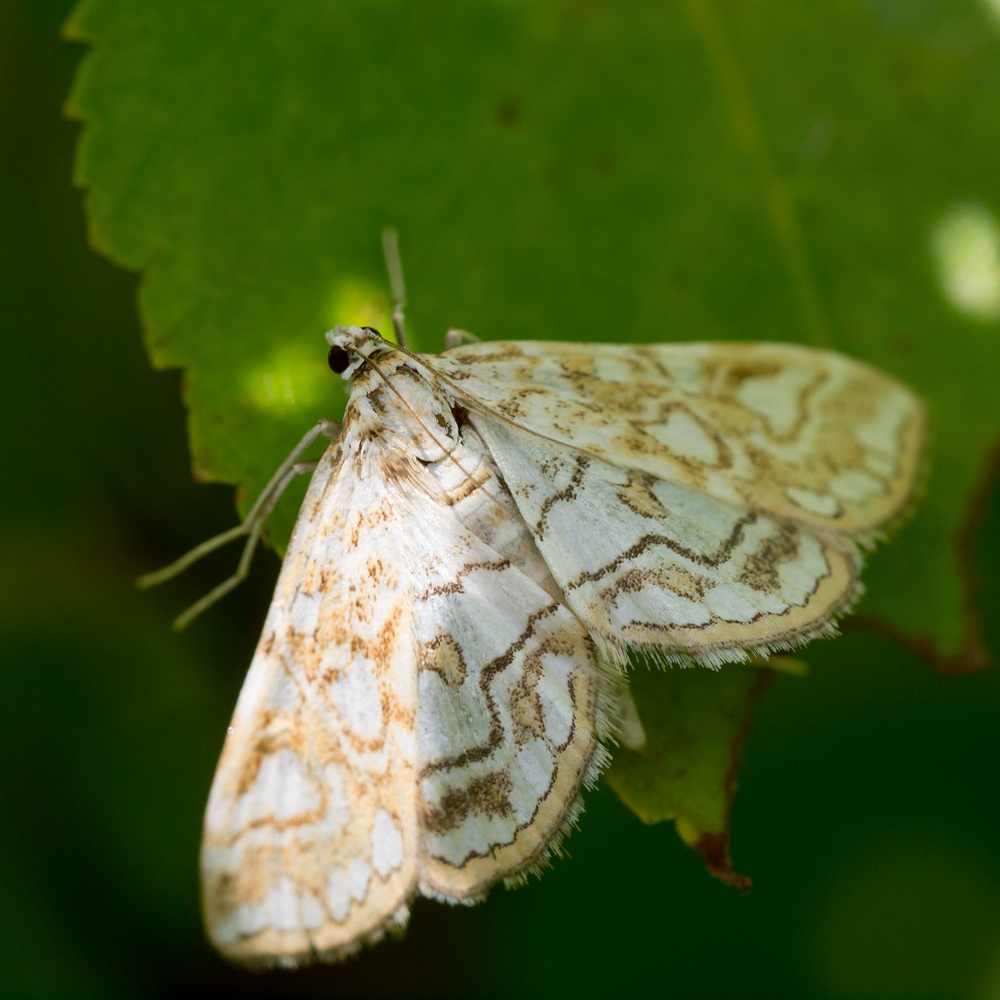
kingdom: Animalia
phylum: Arthropoda
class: Insecta
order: Lepidoptera
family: Crambidae
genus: Elophila
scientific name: Elophila nymphaeata
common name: Brown china-mark
